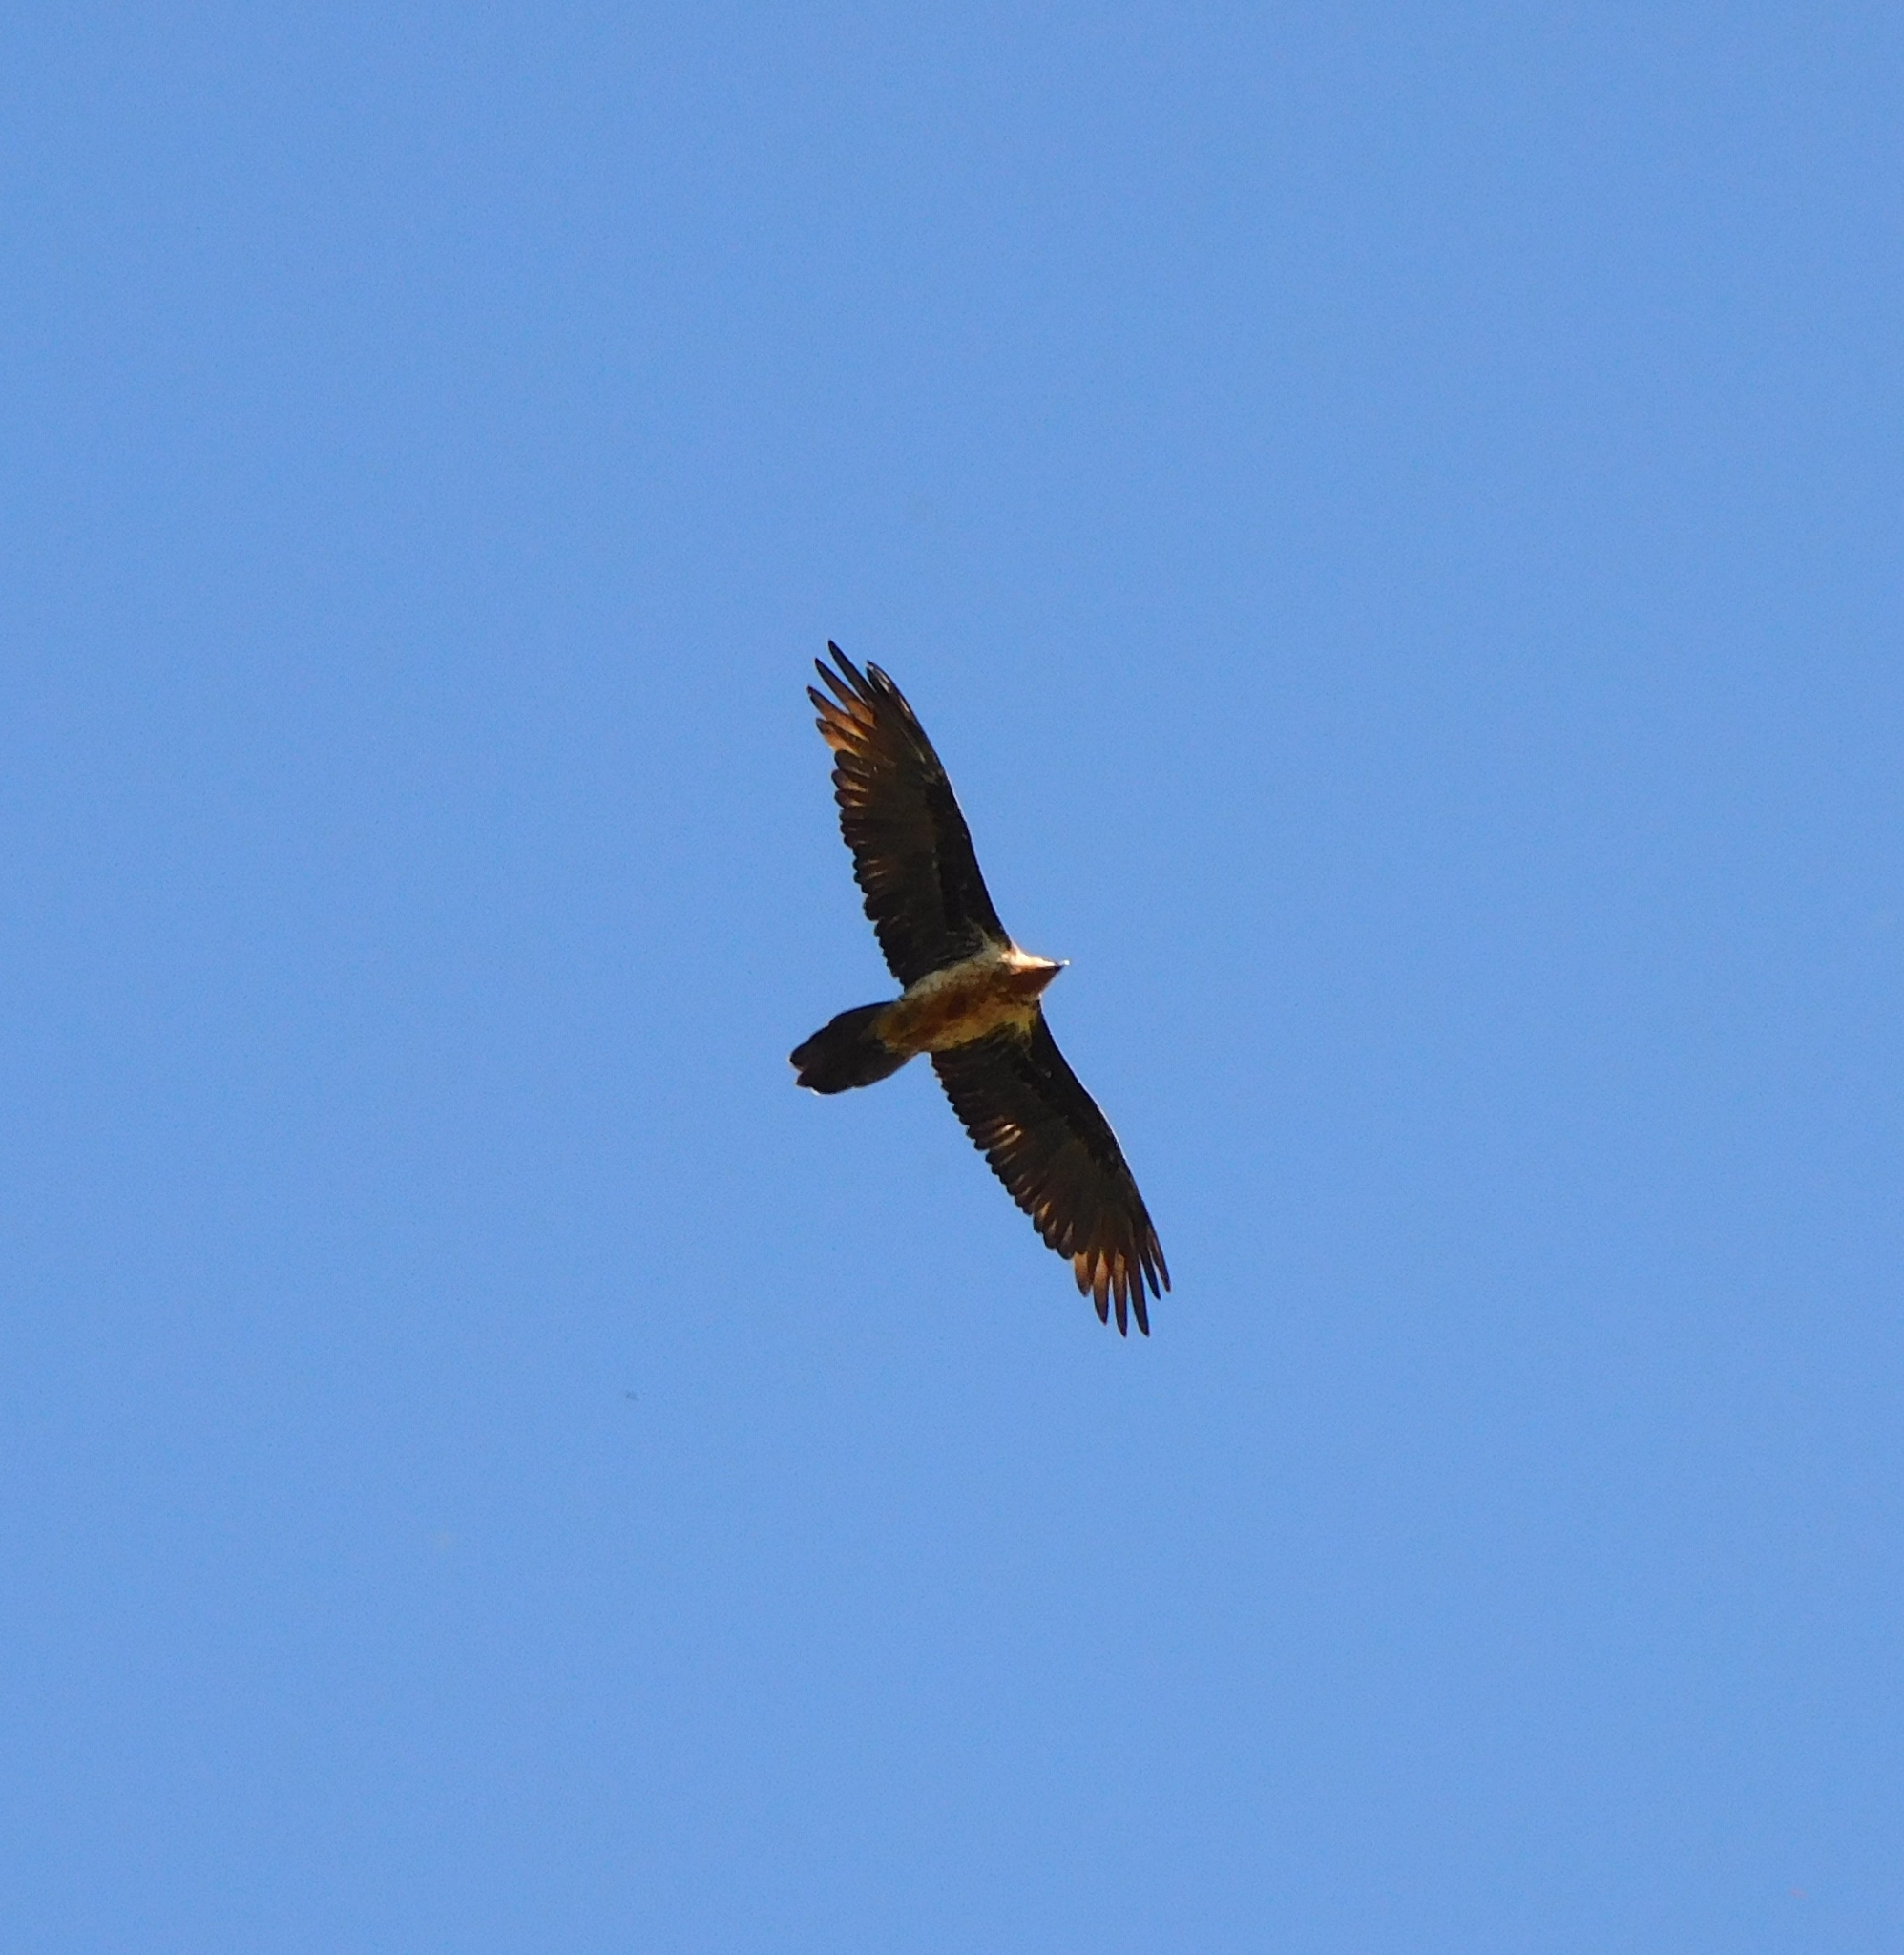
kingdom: Animalia
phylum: Chordata
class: Aves
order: Accipitriformes
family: Accipitridae
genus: Gypaetus
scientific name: Gypaetus barbatus
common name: Bearded vulture
